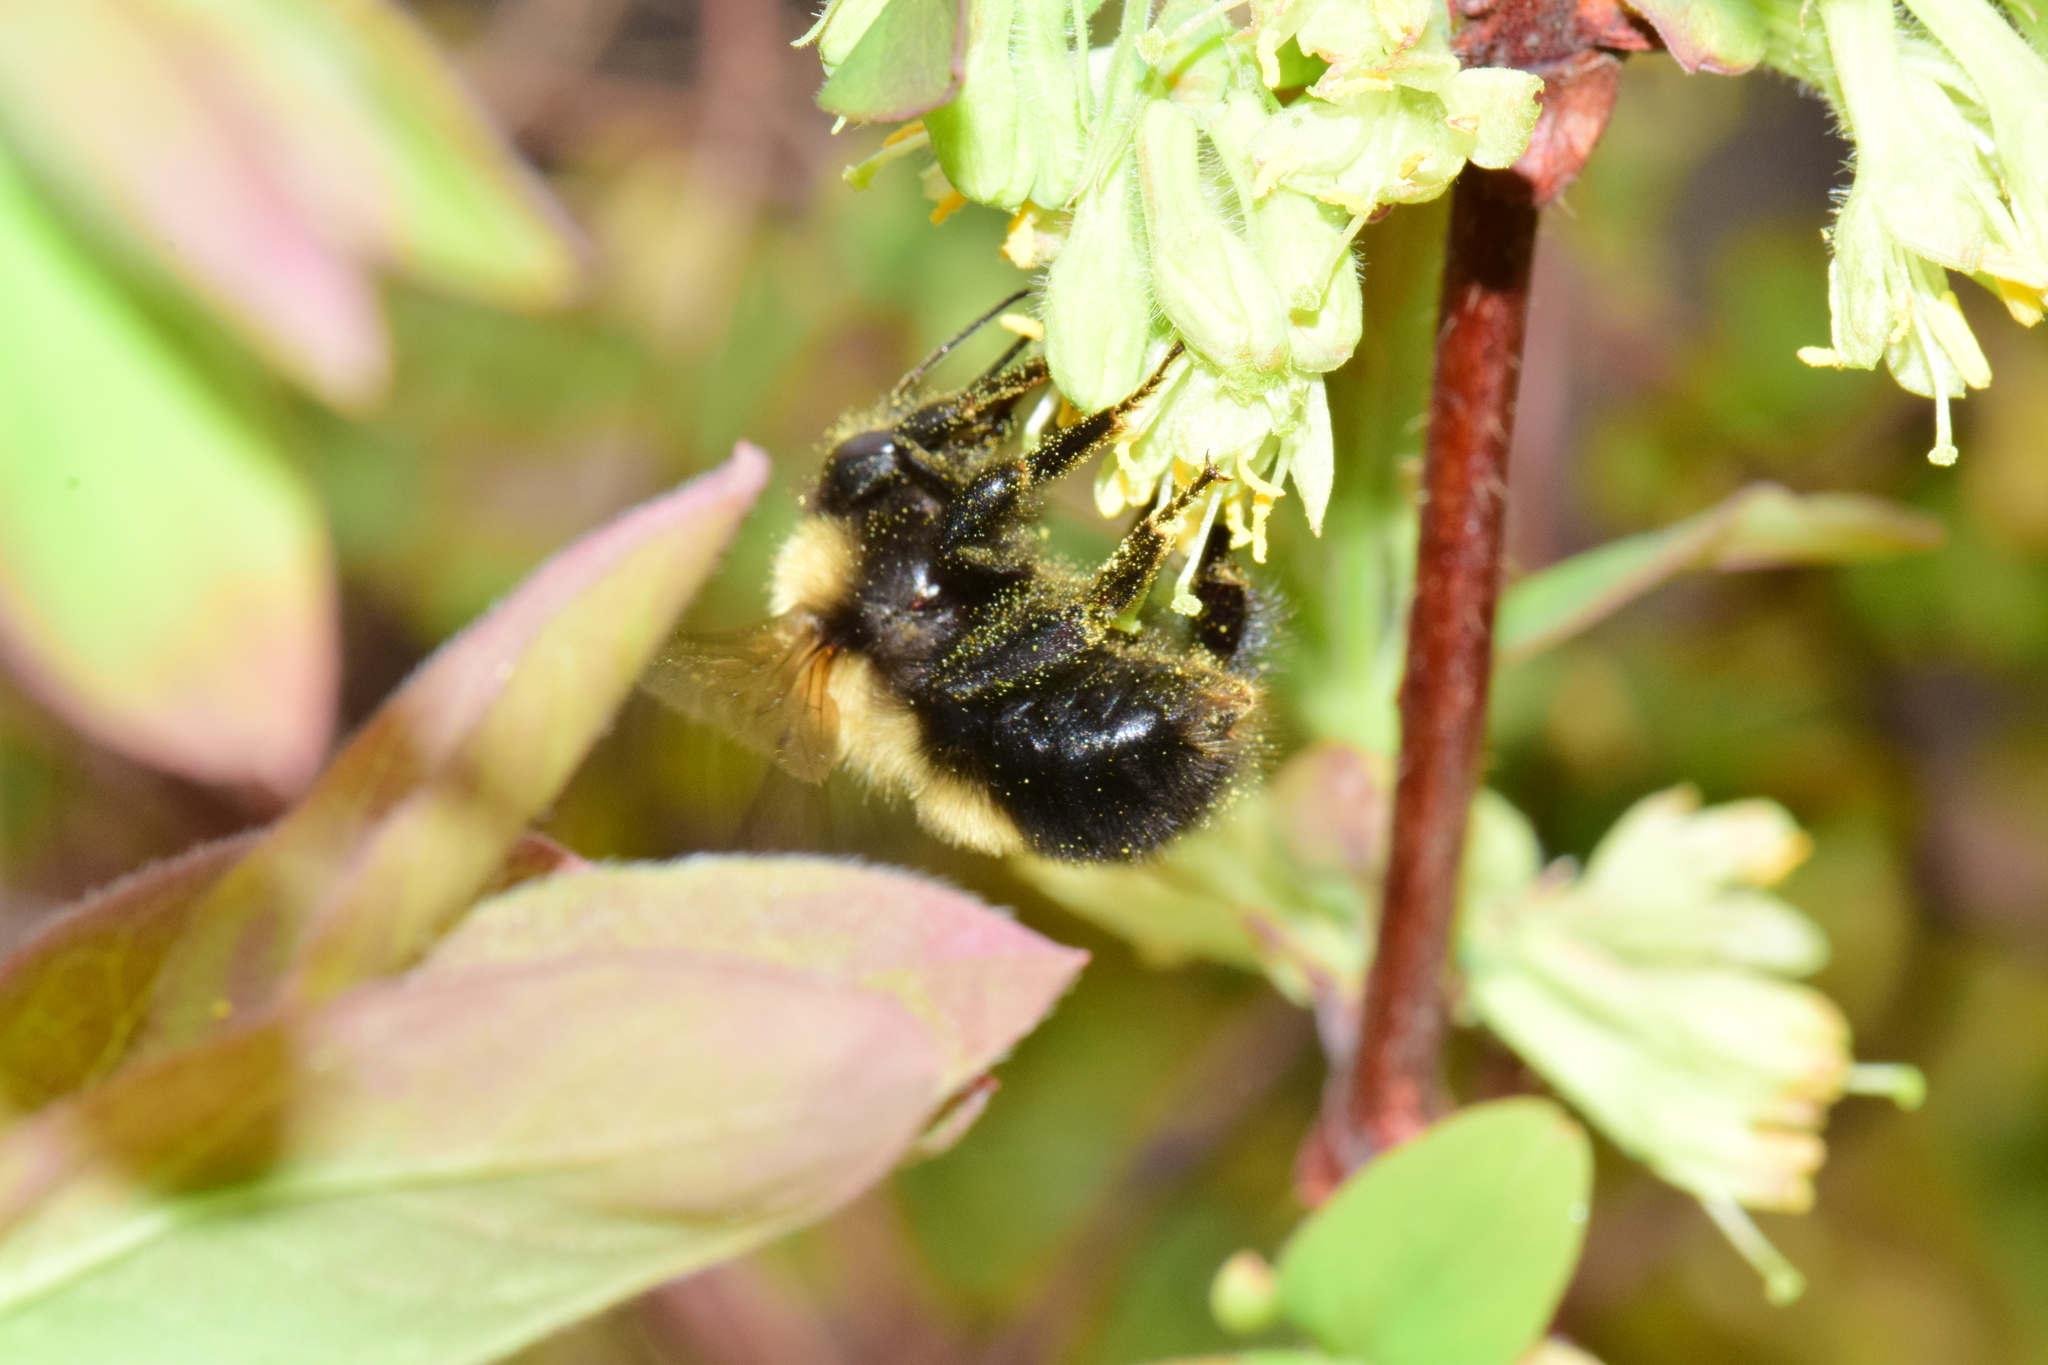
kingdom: Animalia
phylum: Arthropoda
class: Insecta
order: Hymenoptera
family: Apidae
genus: Bombus
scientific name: Bombus perplexus
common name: Confusing bumble bee
